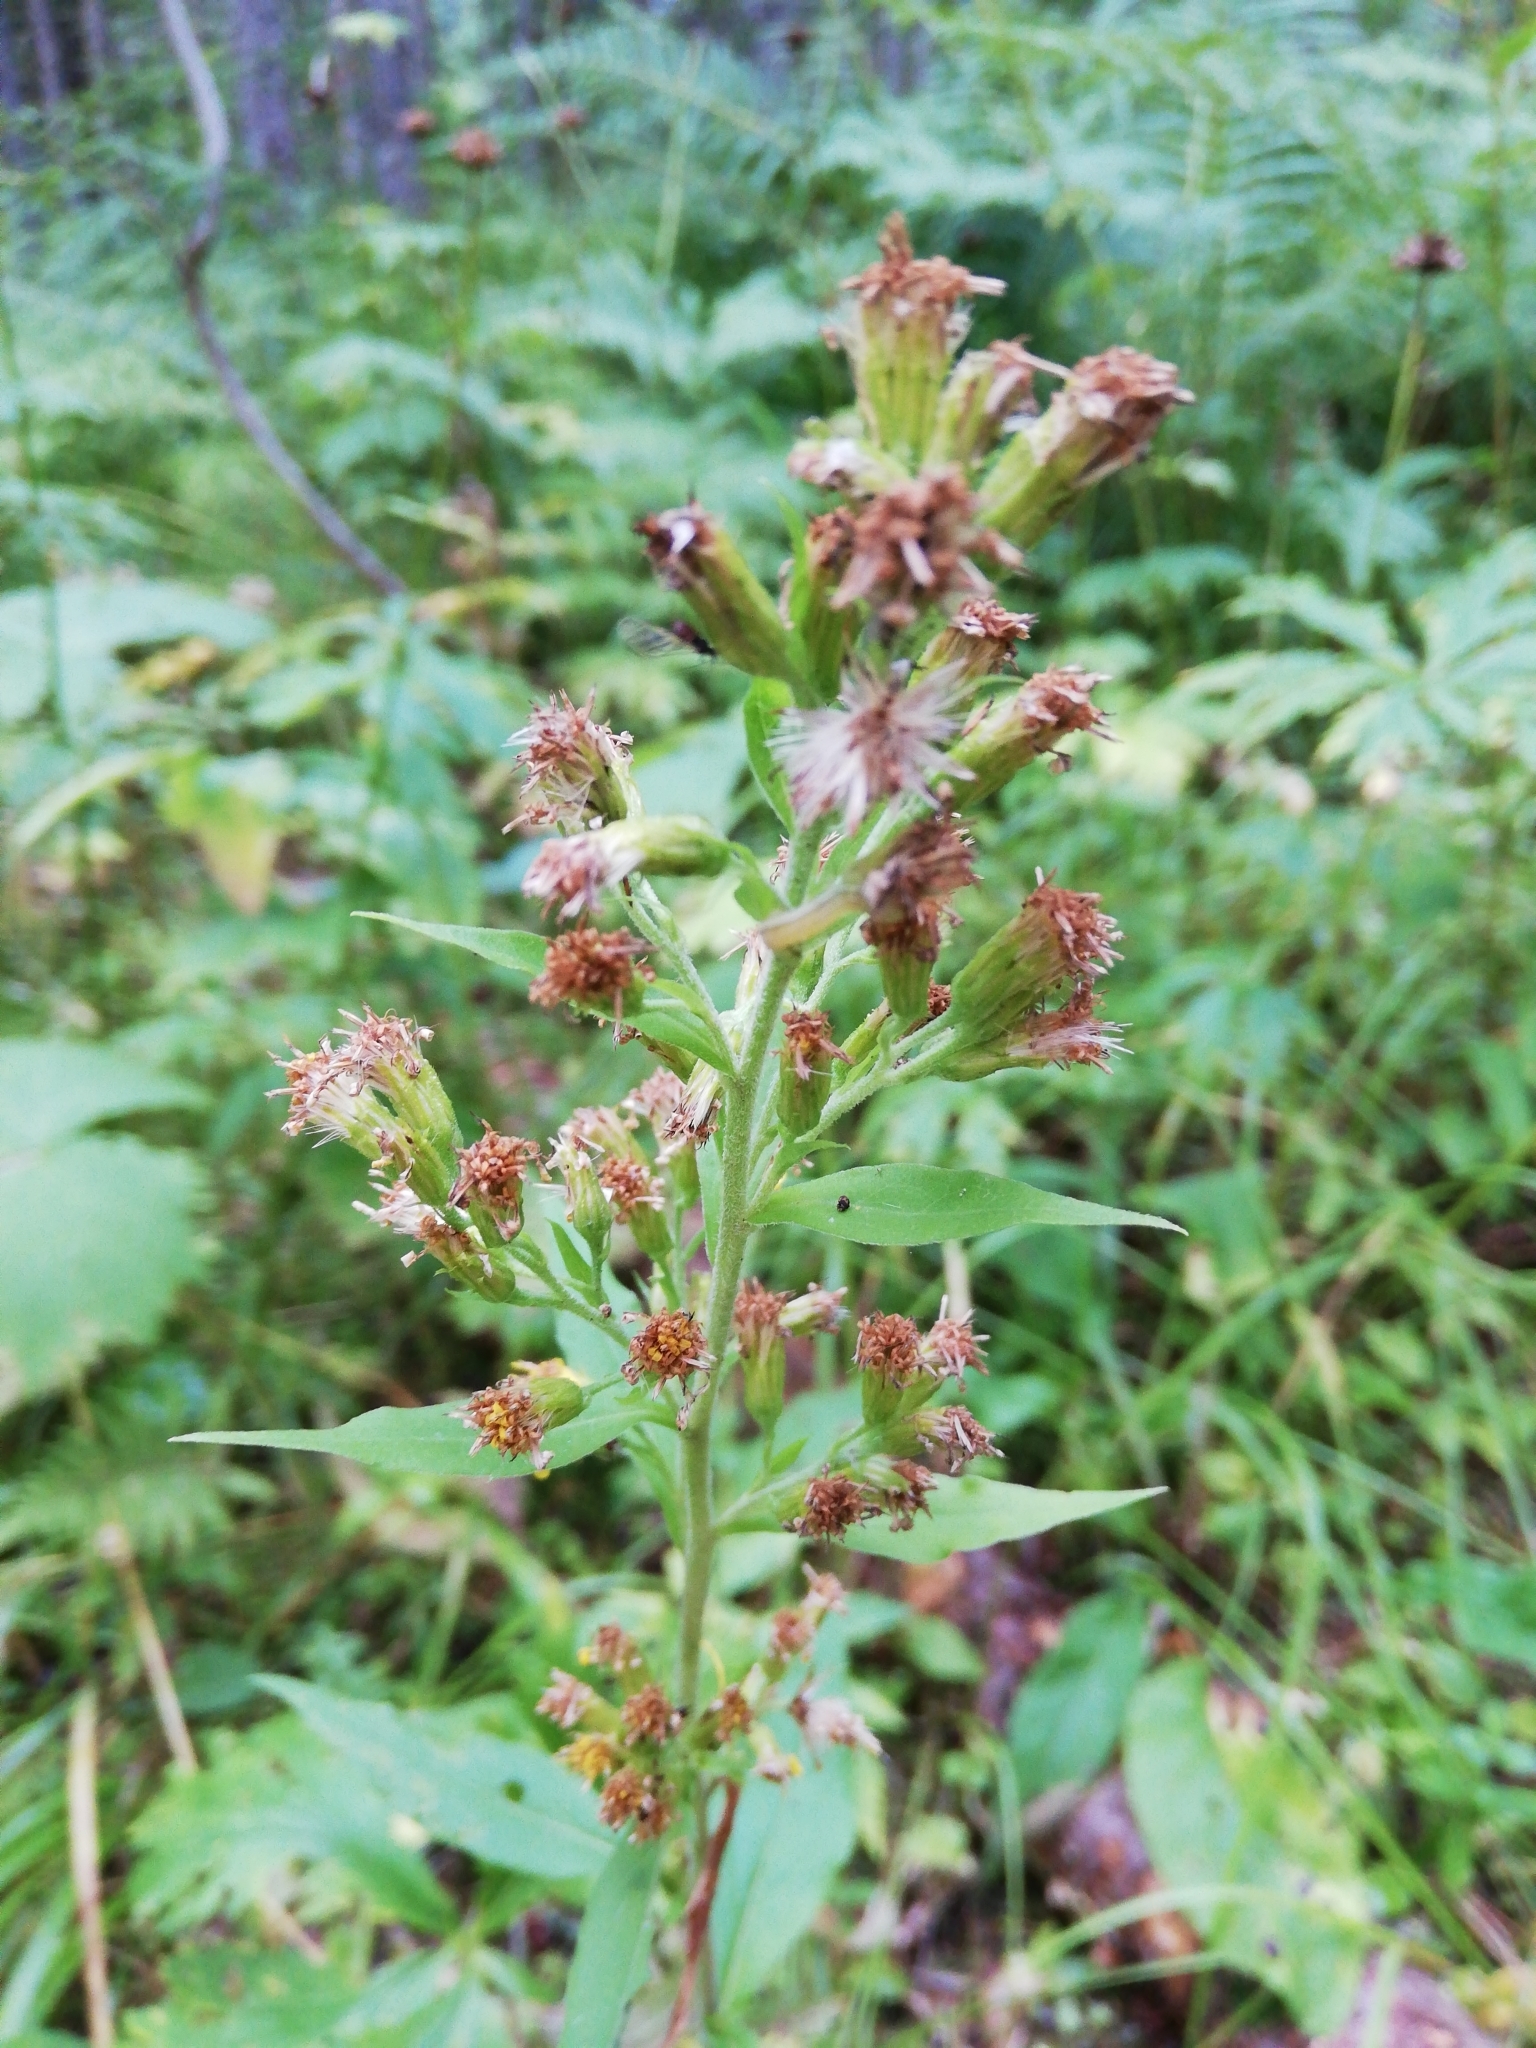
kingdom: Plantae
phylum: Tracheophyta
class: Magnoliopsida
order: Asterales
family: Asteraceae
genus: Solidago
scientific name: Solidago virgaurea
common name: Goldenrod
